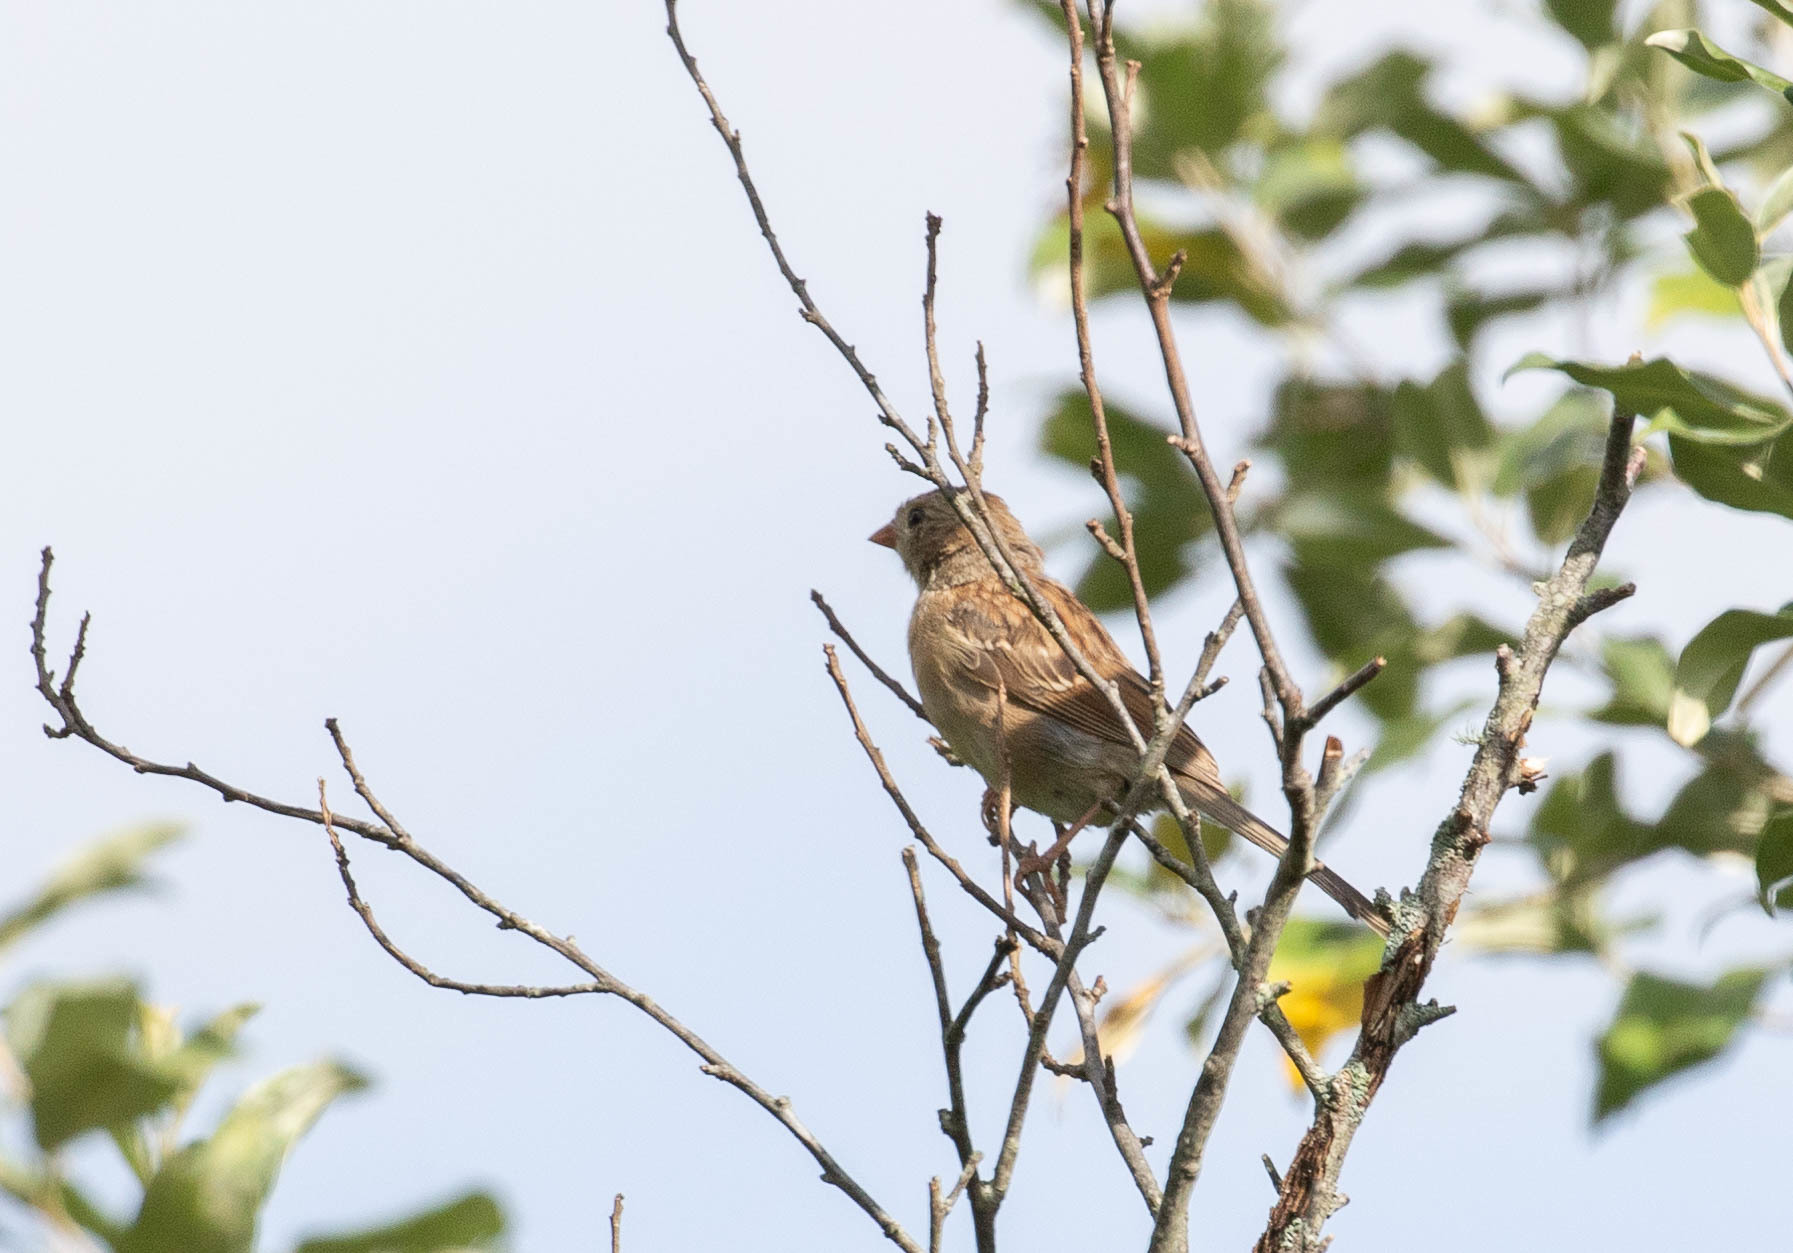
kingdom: Animalia
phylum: Chordata
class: Aves
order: Passeriformes
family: Passerellidae
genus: Spizella
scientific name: Spizella pusilla
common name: Field sparrow
